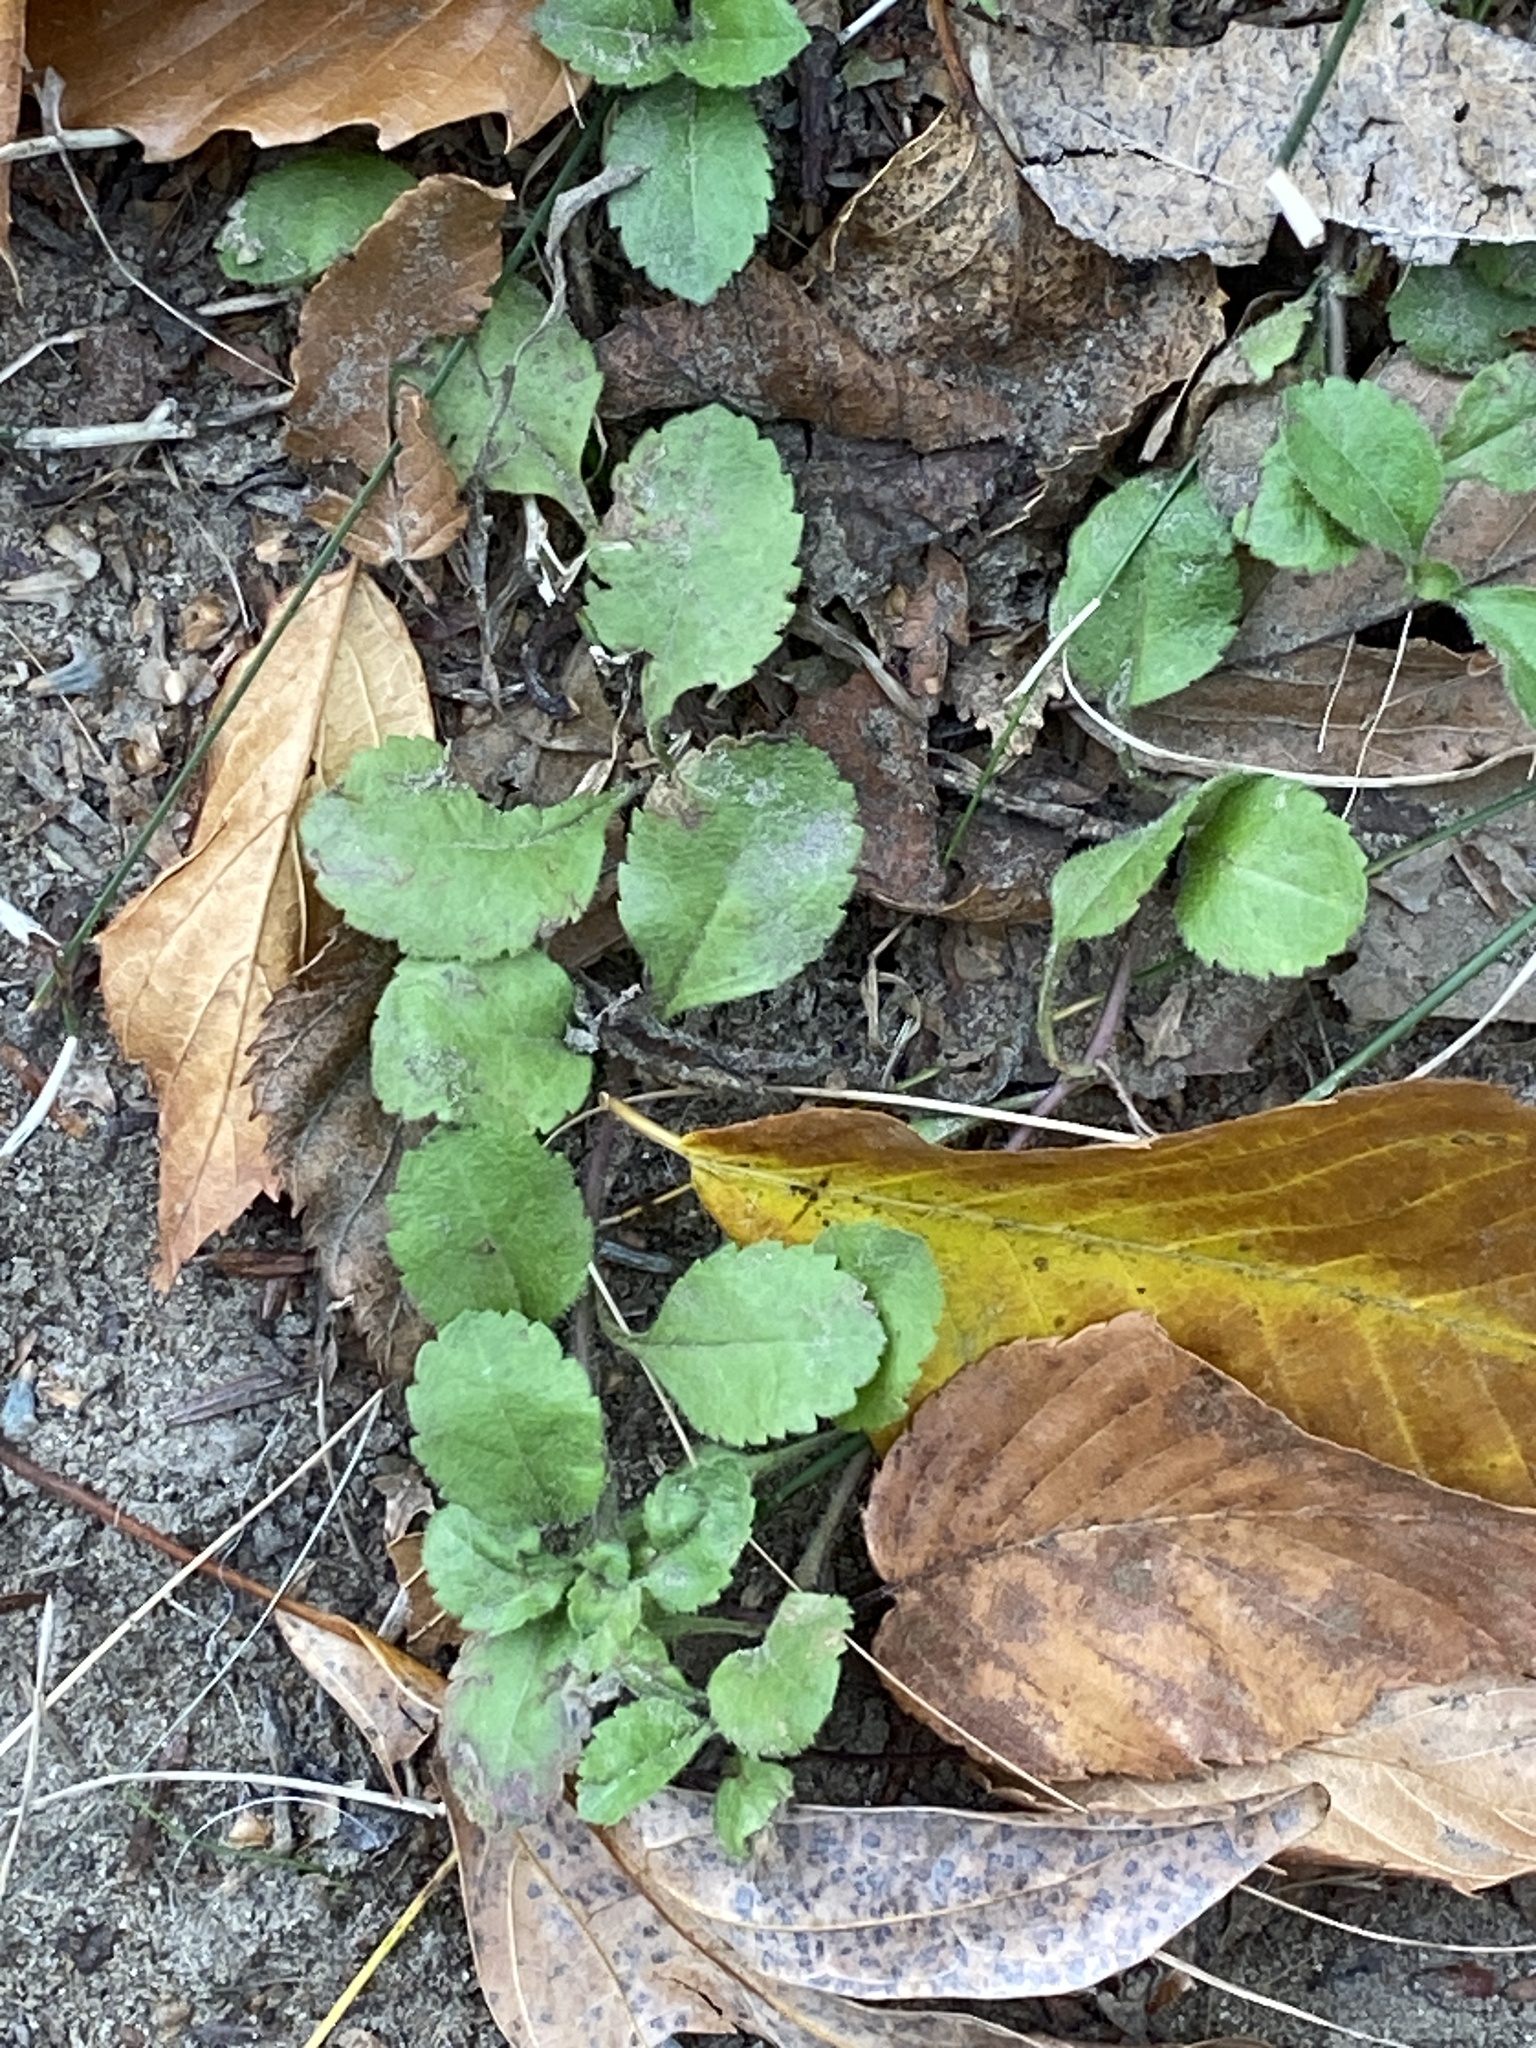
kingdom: Plantae
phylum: Tracheophyta
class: Magnoliopsida
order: Lamiales
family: Plantaginaceae
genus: Veronica
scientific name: Veronica officinalis
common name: Common speedwell
